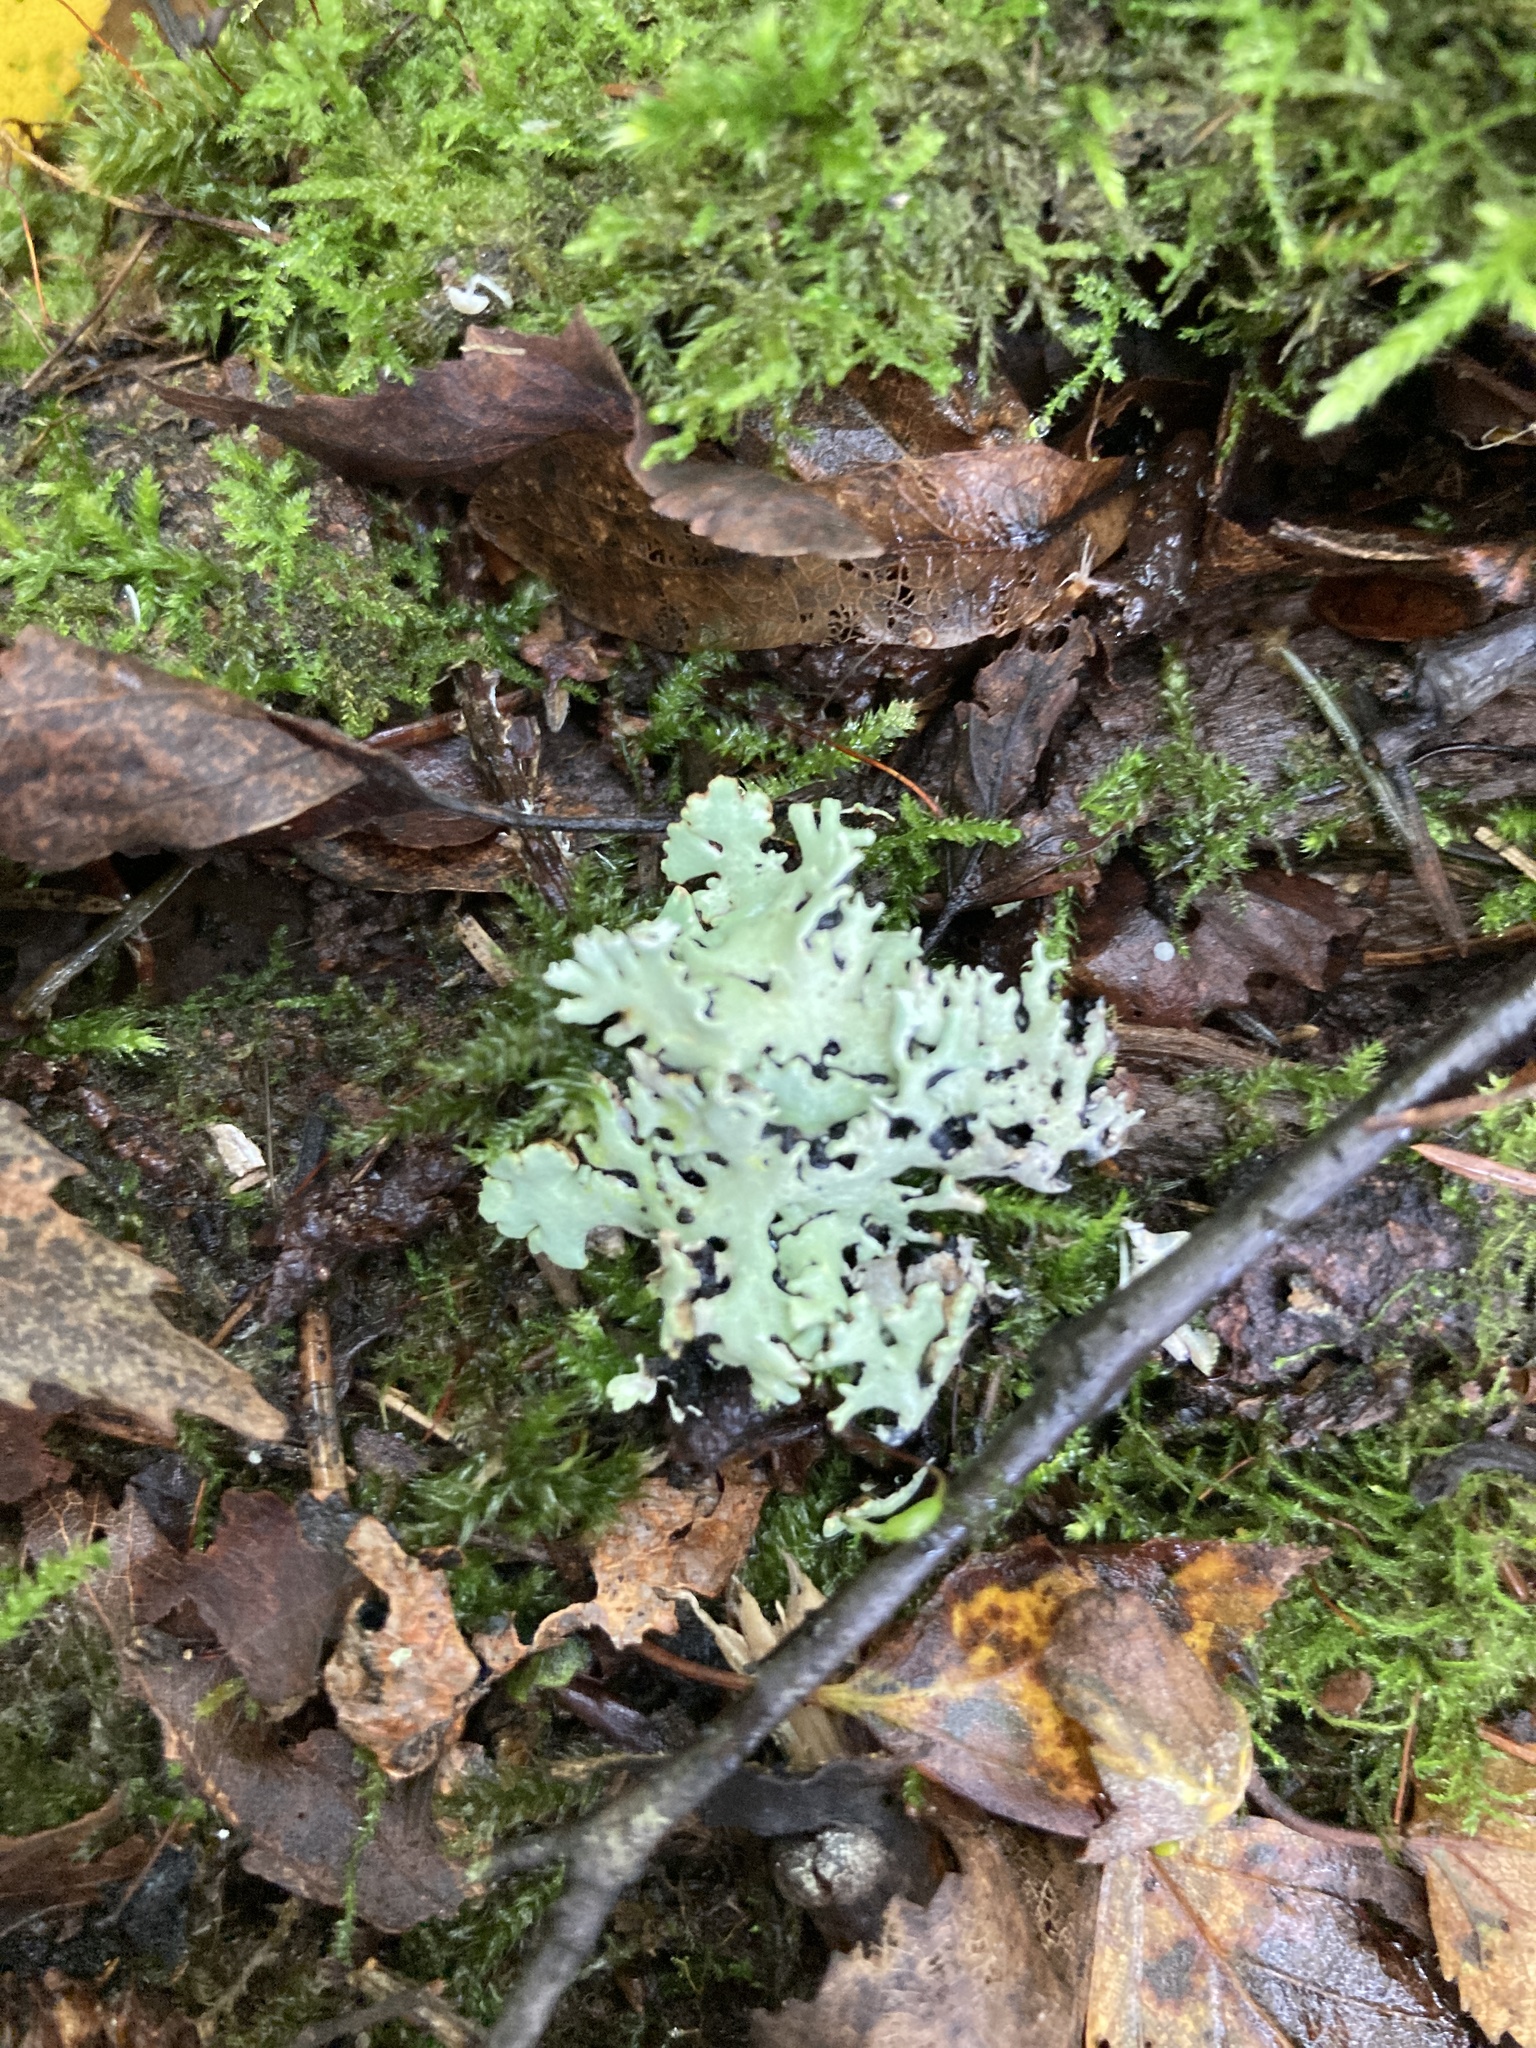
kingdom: Fungi
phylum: Ascomycota
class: Lecanoromycetes
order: Lecanorales
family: Parmeliaceae
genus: Hypogymnia
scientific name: Hypogymnia physodes
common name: Dark crottle
